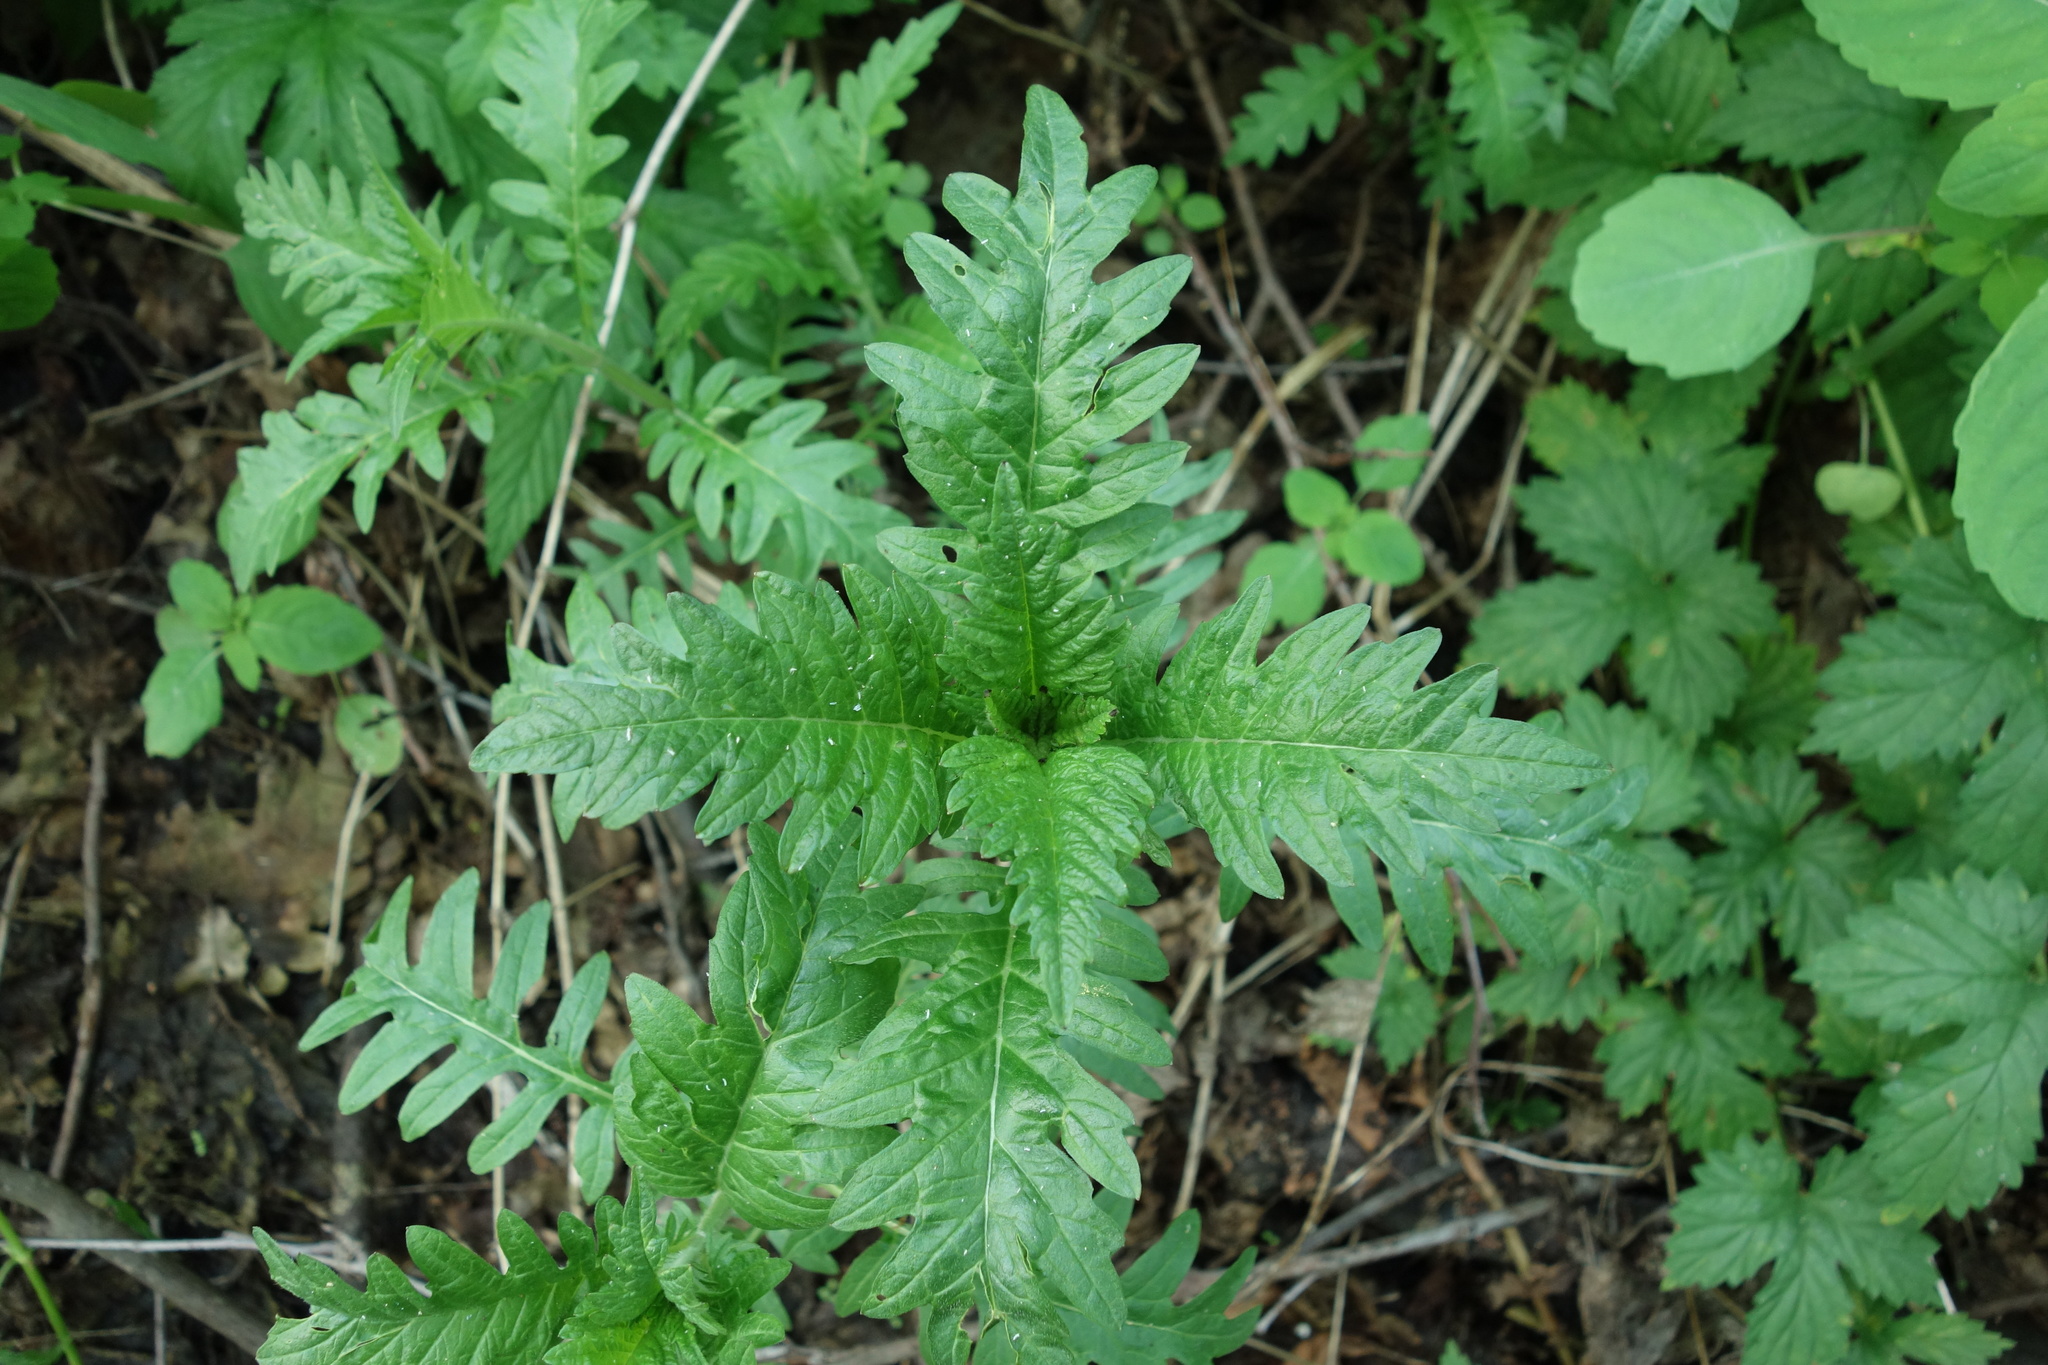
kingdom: Plantae
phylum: Tracheophyta
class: Magnoliopsida
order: Lamiales
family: Lamiaceae
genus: Lycopus
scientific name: Lycopus europaeus
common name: European bugleweed
